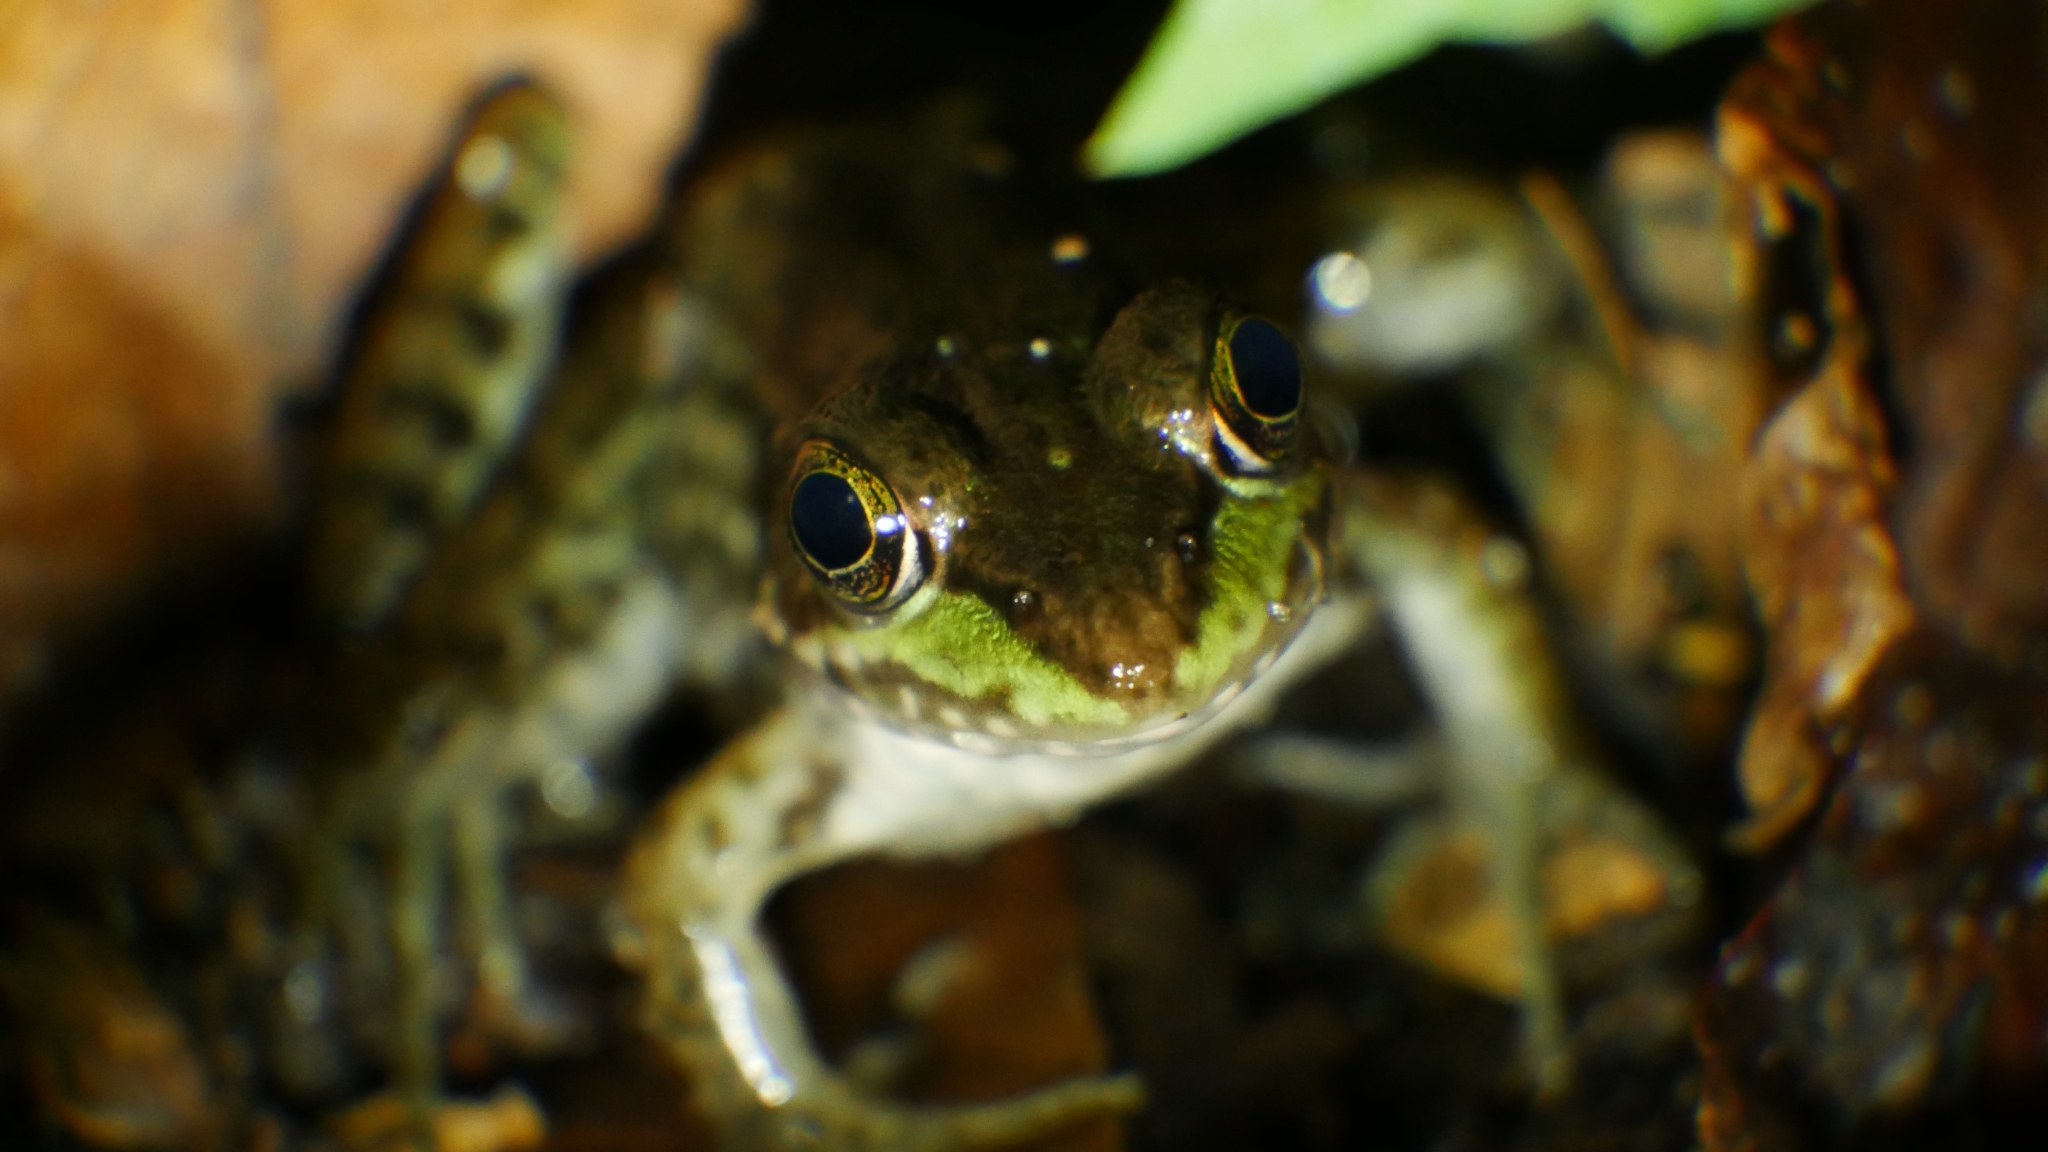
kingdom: Animalia
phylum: Chordata
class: Amphibia
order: Anura
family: Ranidae
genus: Lithobates
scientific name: Lithobates clamitans
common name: Green frog
